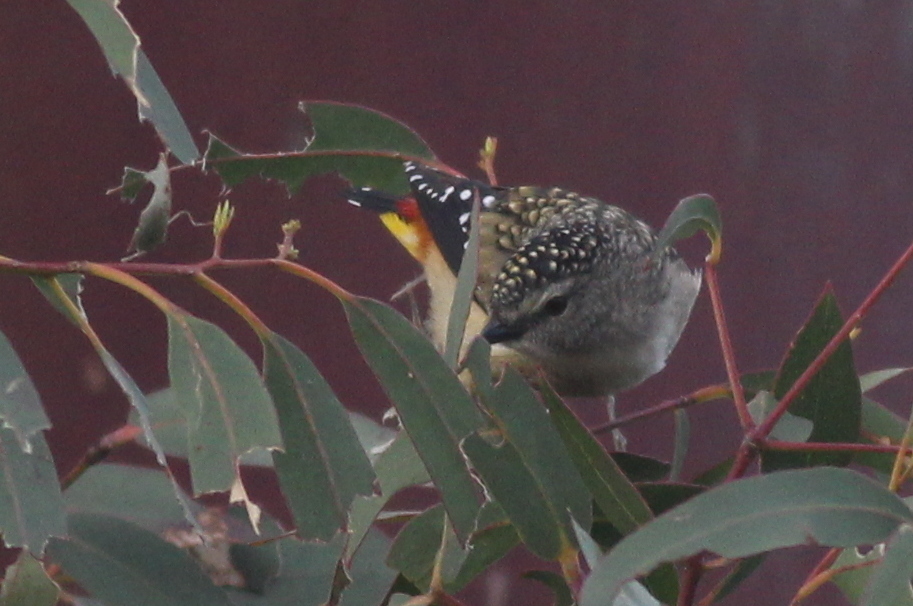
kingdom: Animalia
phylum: Chordata
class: Aves
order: Passeriformes
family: Pardalotidae
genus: Pardalotus
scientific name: Pardalotus punctatus
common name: Spotted pardalote
